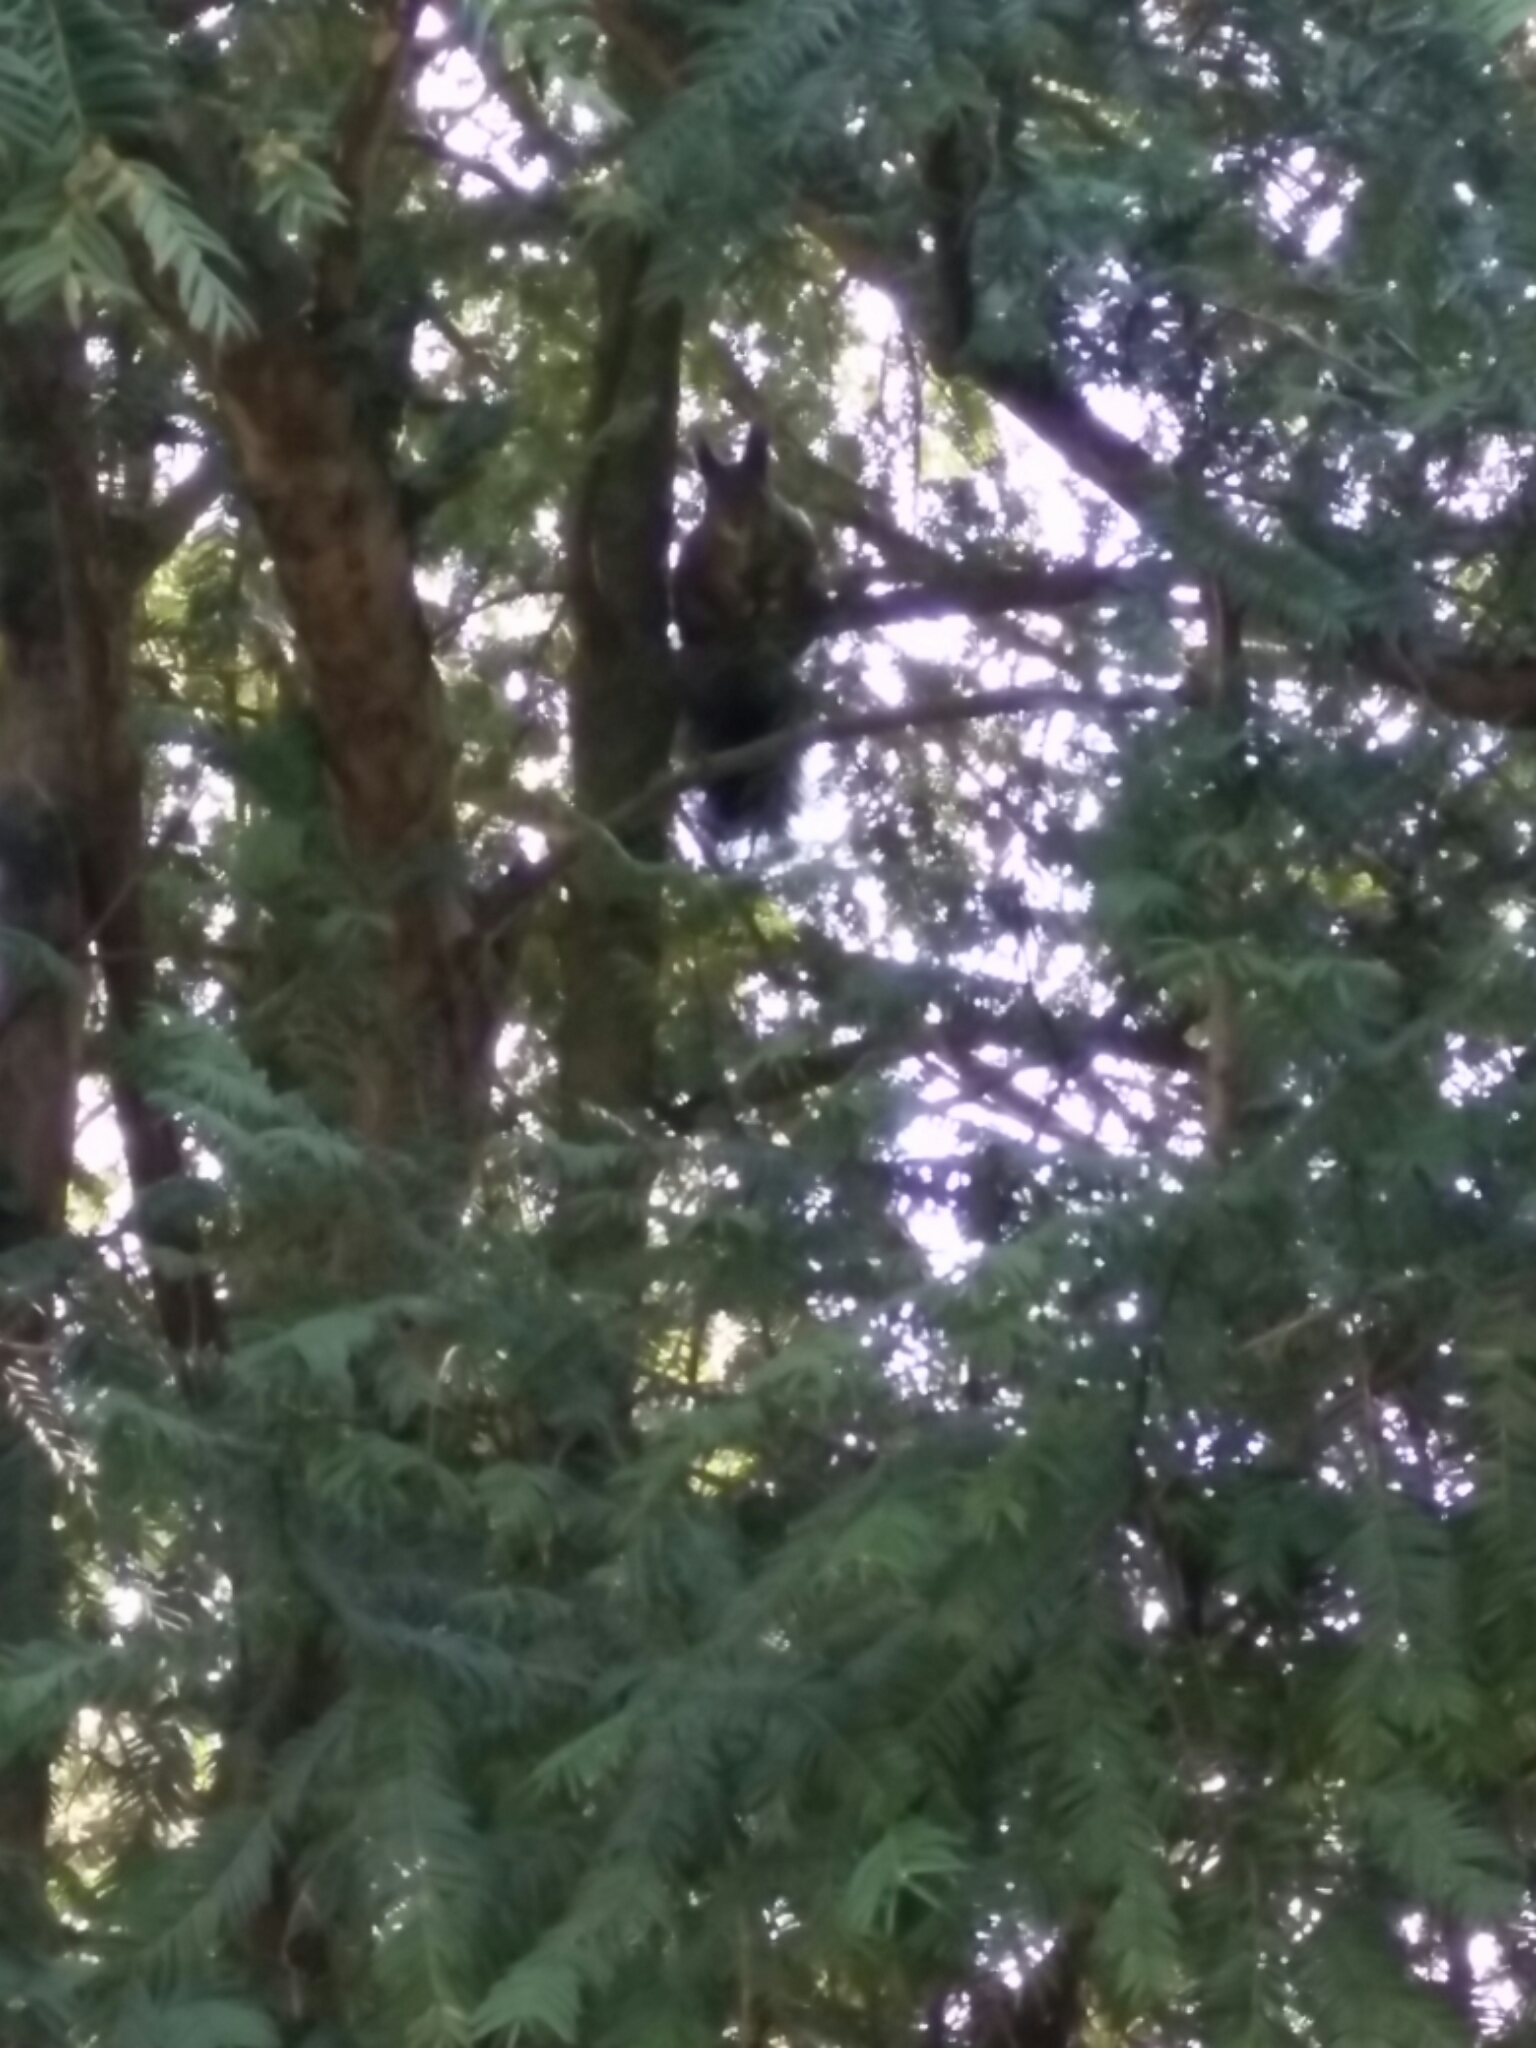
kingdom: Animalia
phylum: Chordata
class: Mammalia
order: Rodentia
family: Sciuridae
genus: Sciurus
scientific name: Sciurus vulgaris
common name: Eurasian red squirrel
